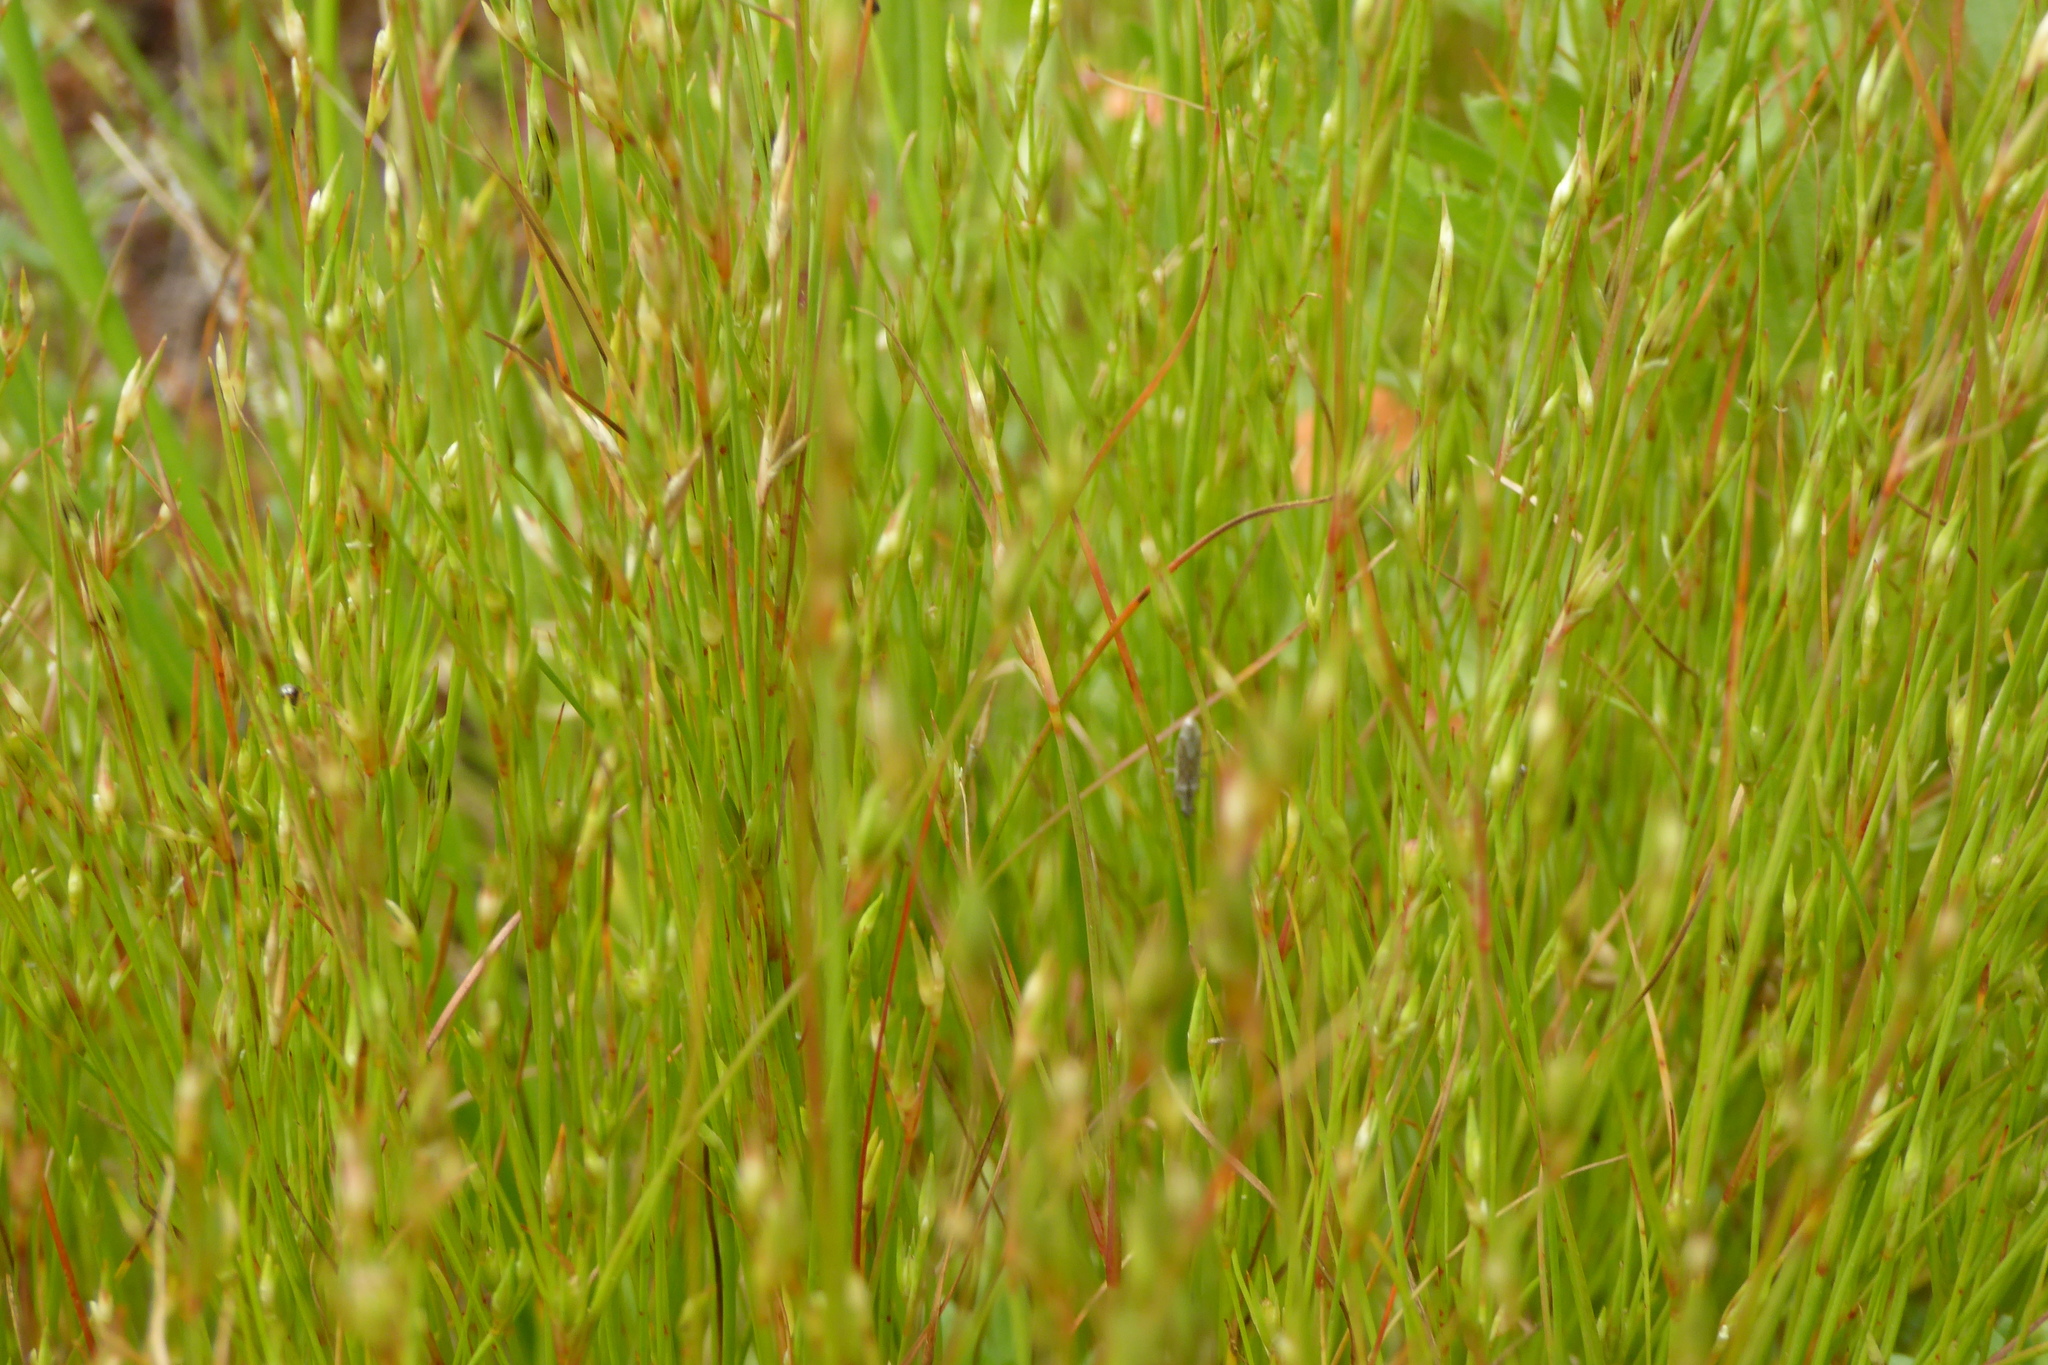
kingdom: Plantae
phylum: Tracheophyta
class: Liliopsida
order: Poales
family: Juncaceae
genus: Juncus
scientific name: Juncus bufonius
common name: Toad rush
